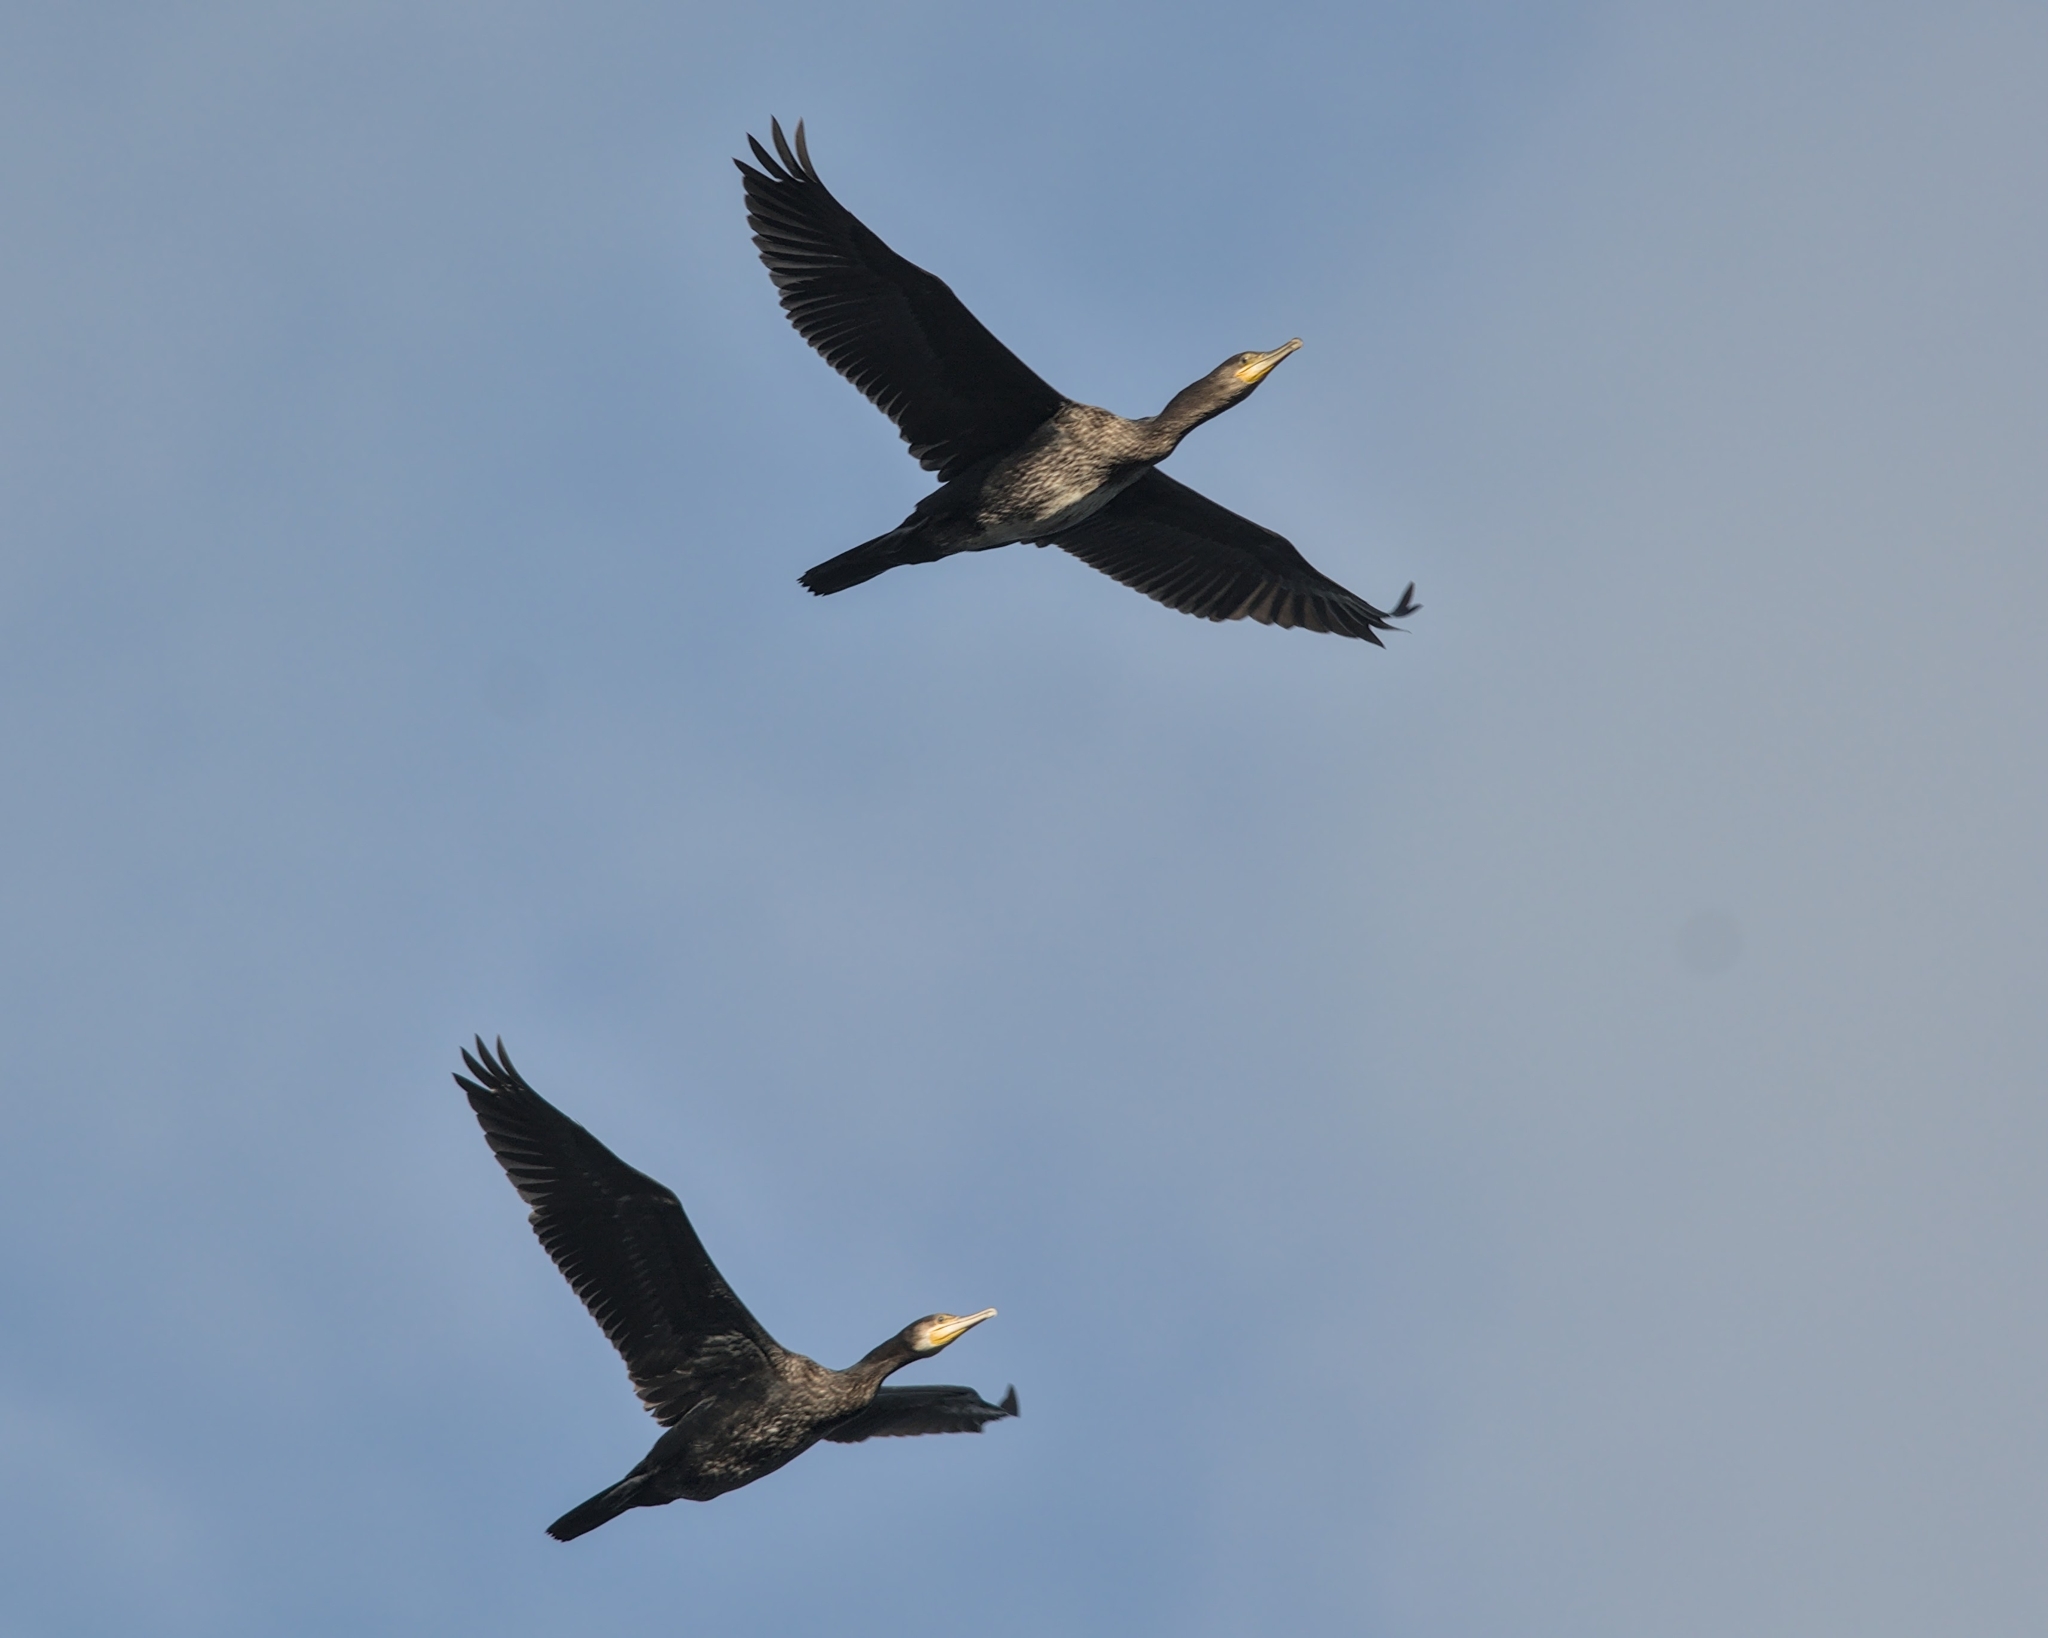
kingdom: Animalia
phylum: Chordata
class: Aves
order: Suliformes
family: Phalacrocoracidae
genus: Phalacrocorax
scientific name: Phalacrocorax carbo
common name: Great cormorant
